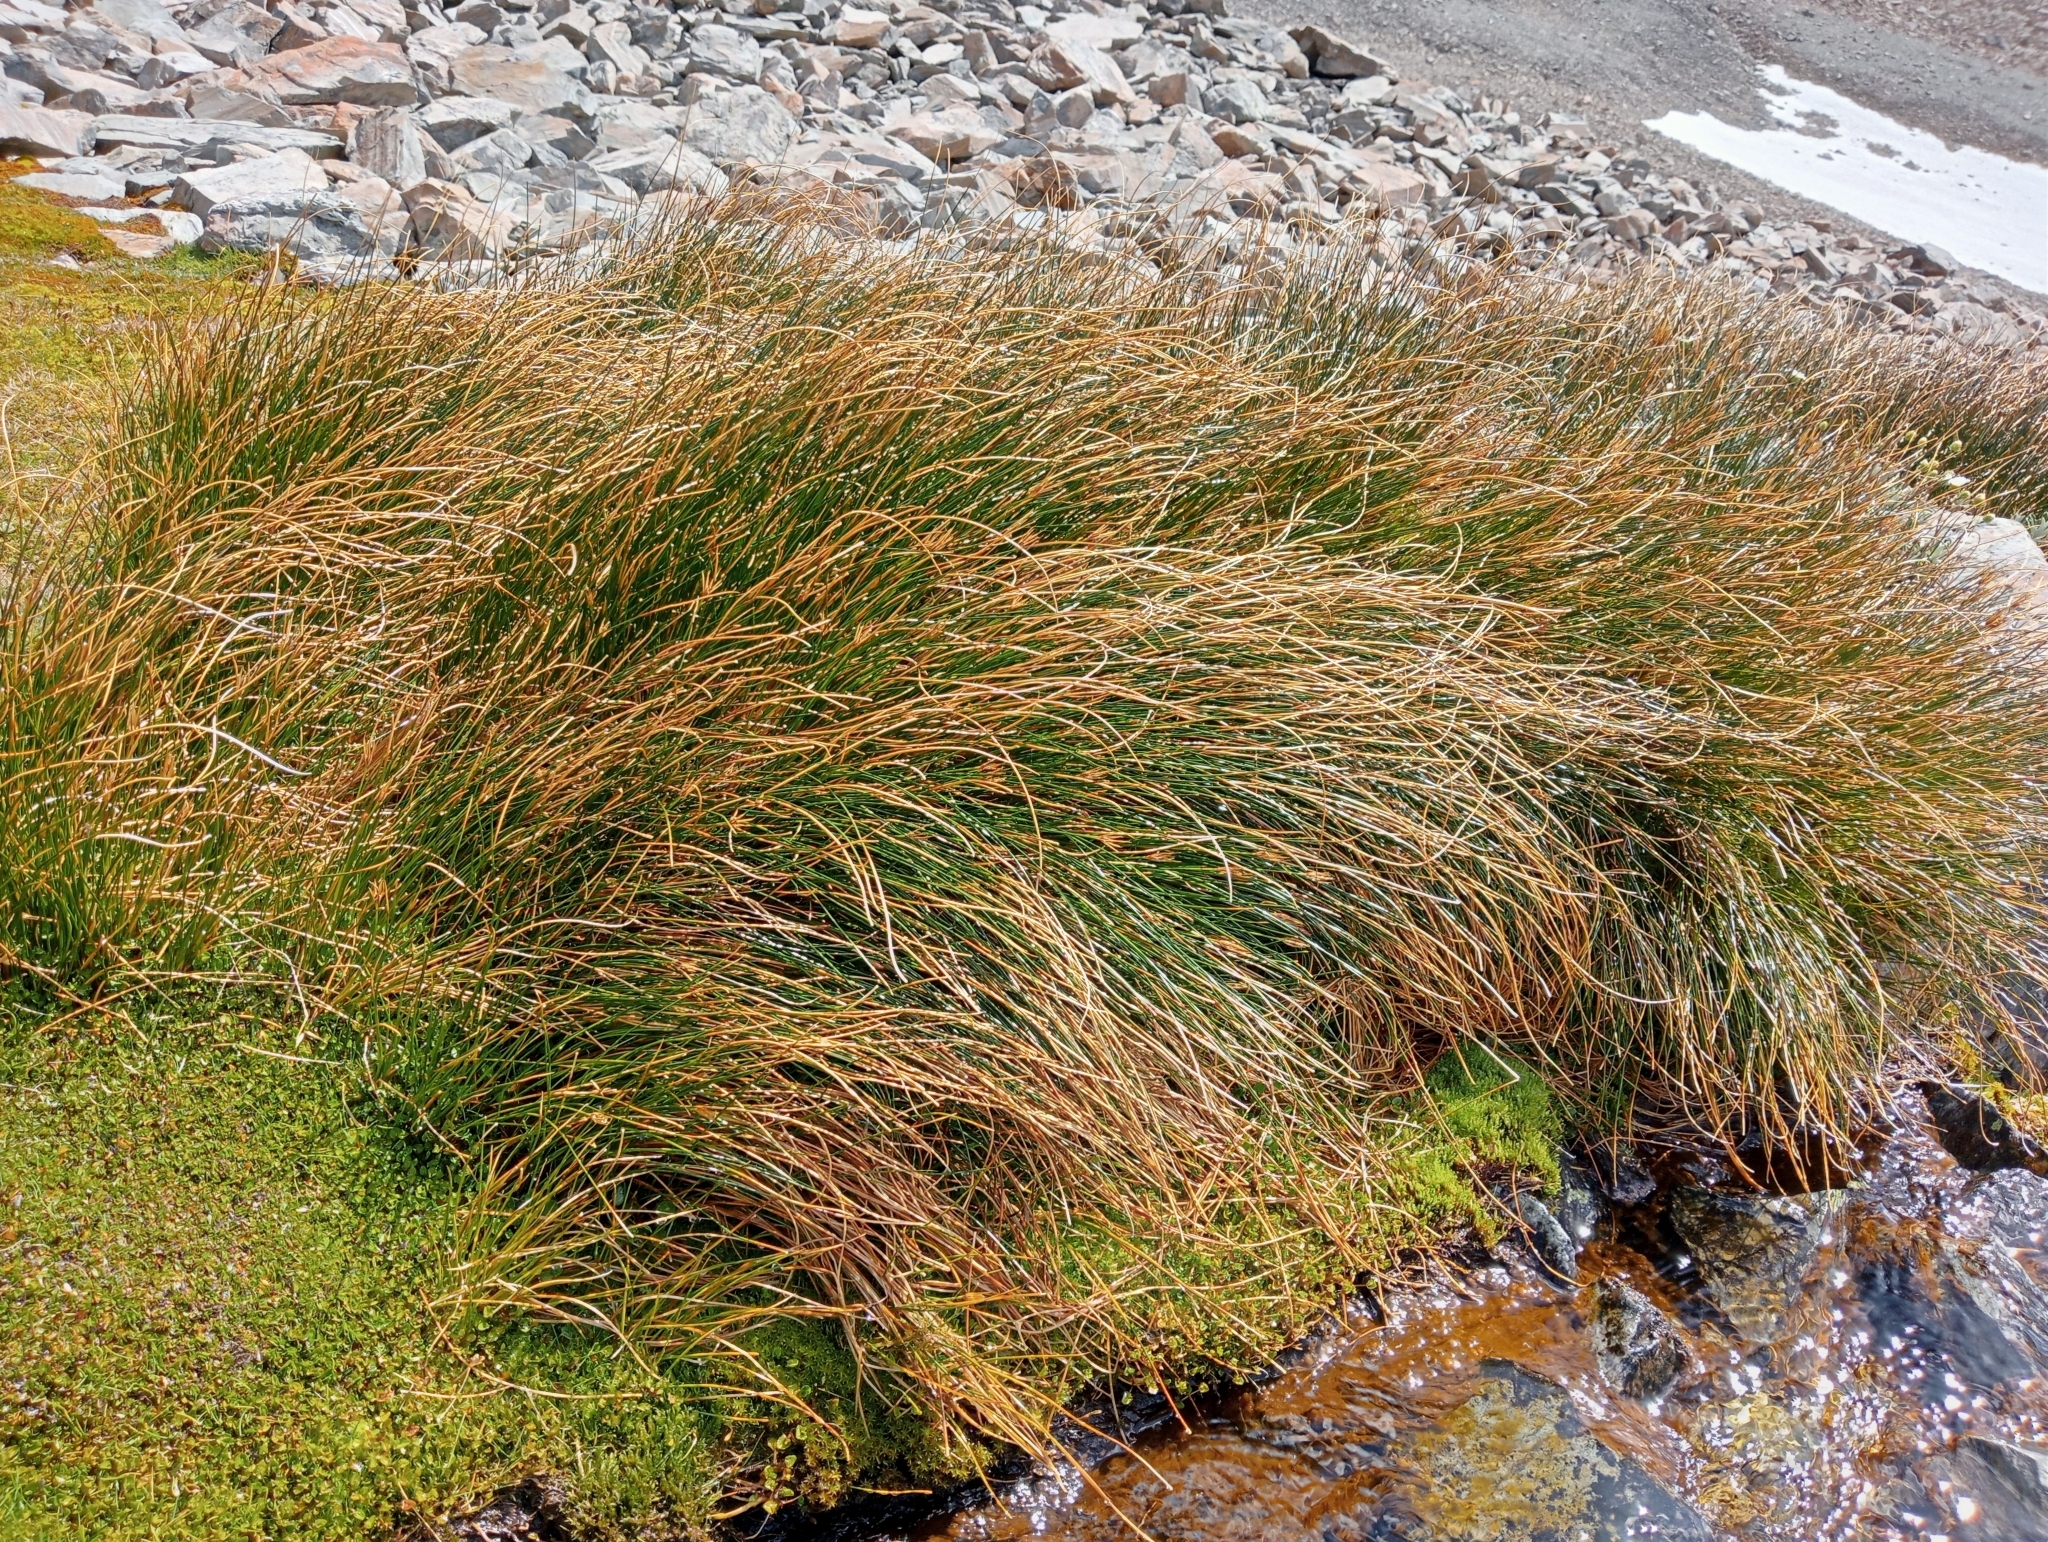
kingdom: Plantae
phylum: Tracheophyta
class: Liliopsida
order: Poales
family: Juncaceae
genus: Marsippospermum
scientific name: Marsippospermum gracile
